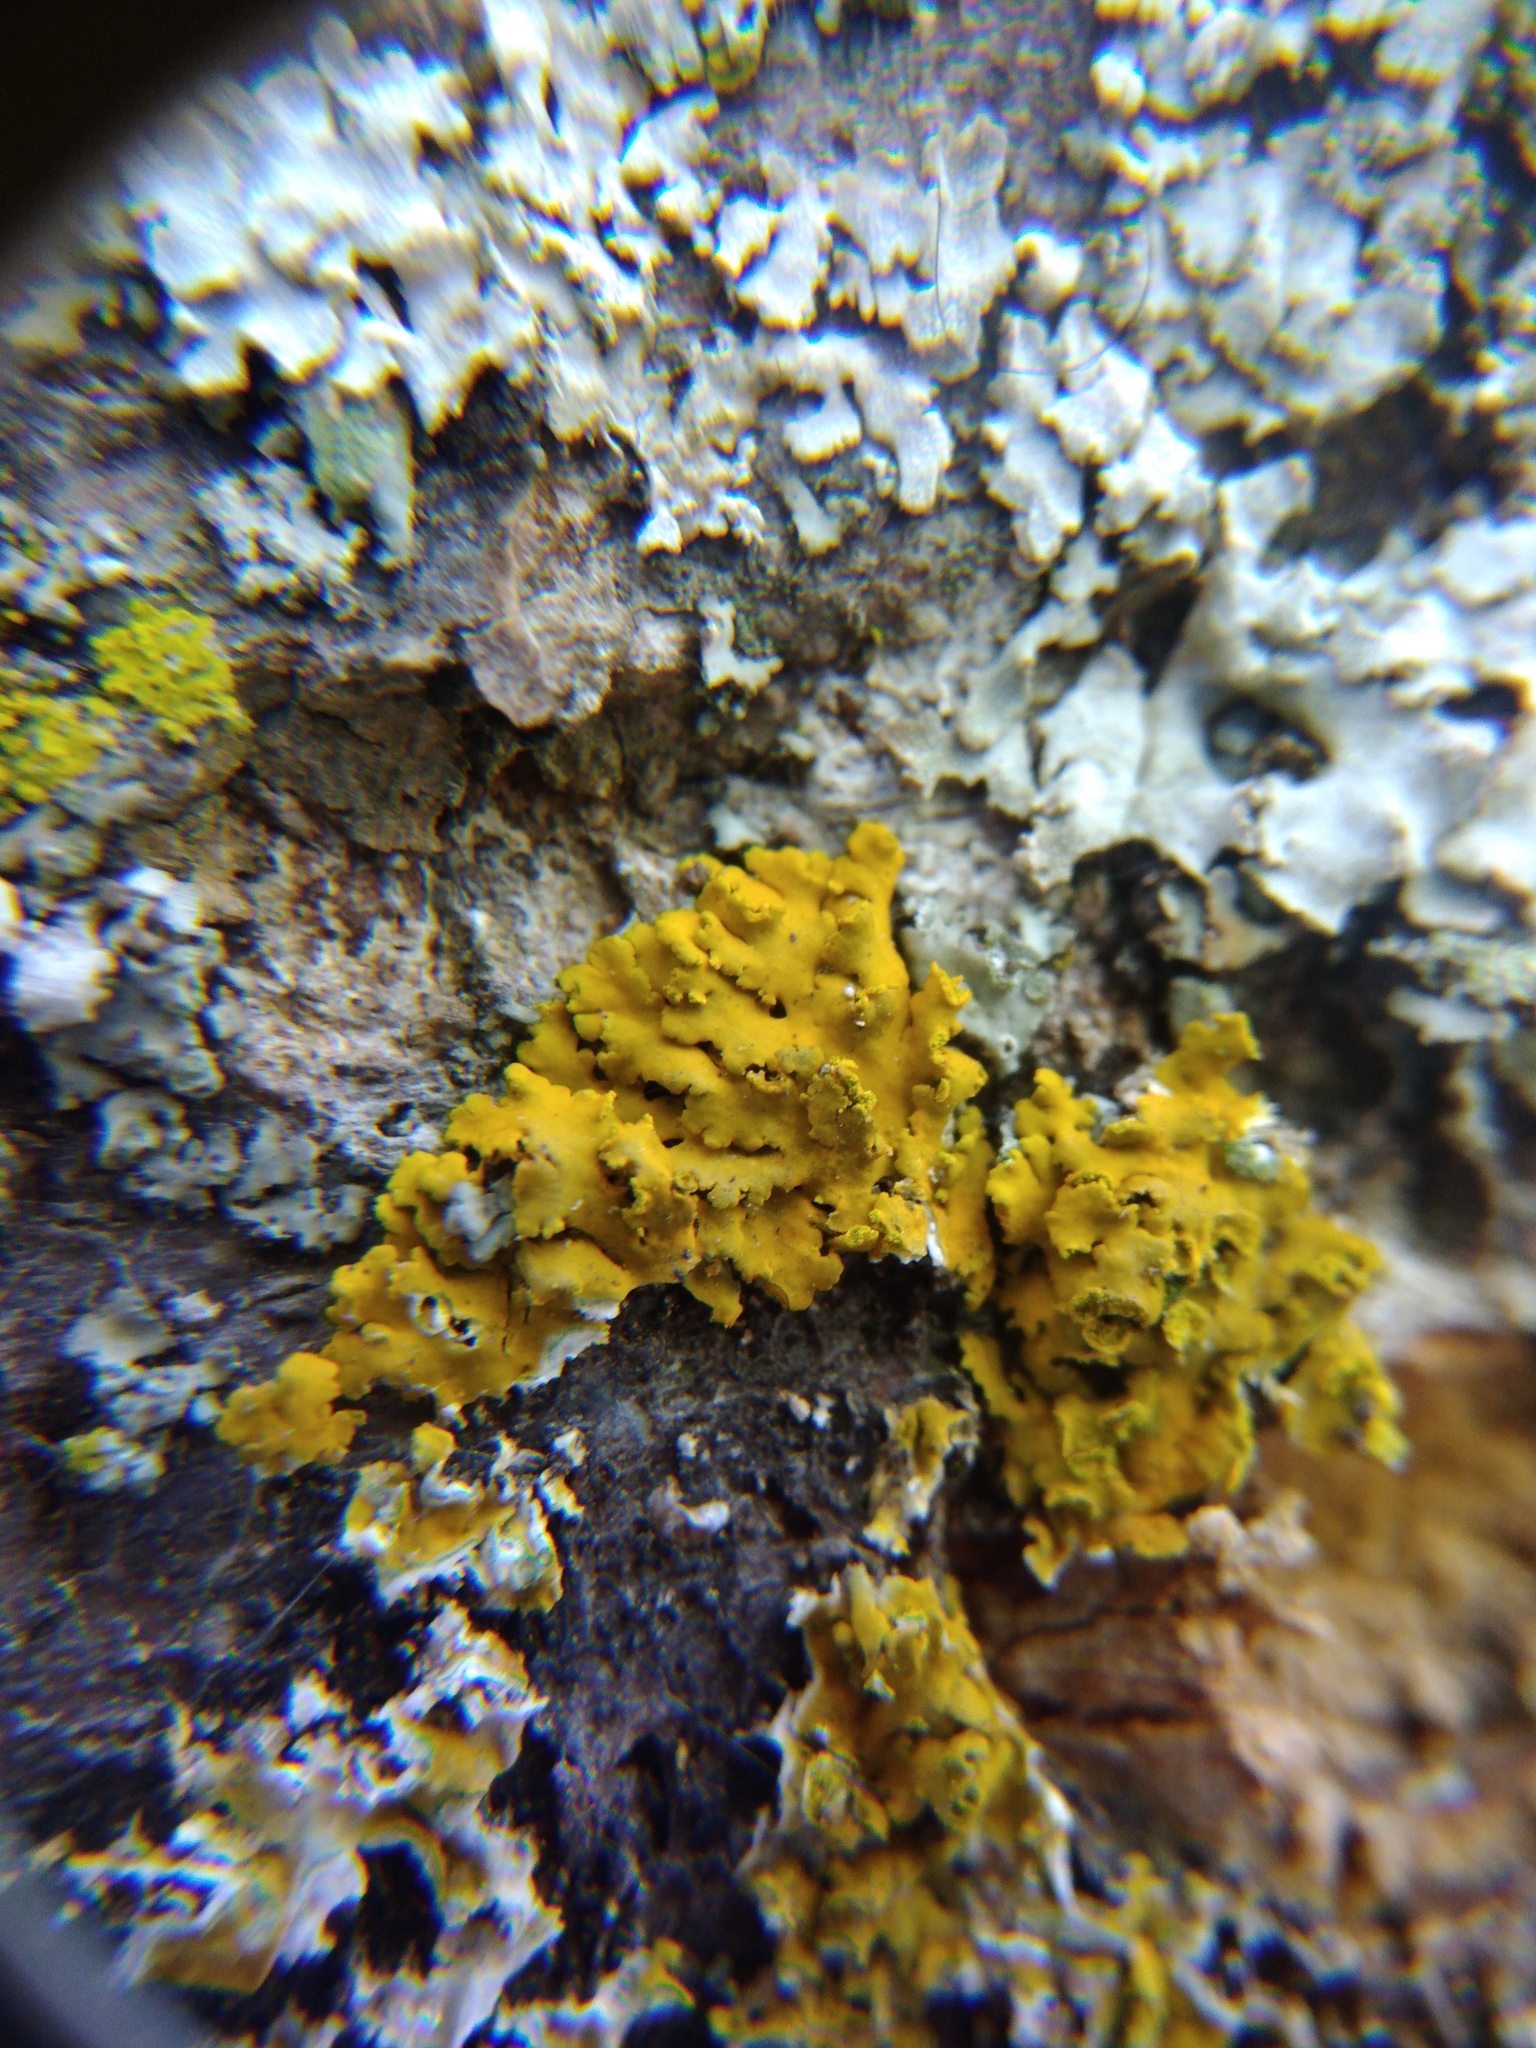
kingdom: Fungi
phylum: Ascomycota
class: Lecanoromycetes
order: Teloschistales
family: Teloschistaceae
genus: Xanthomendoza
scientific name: Xanthomendoza huculica
